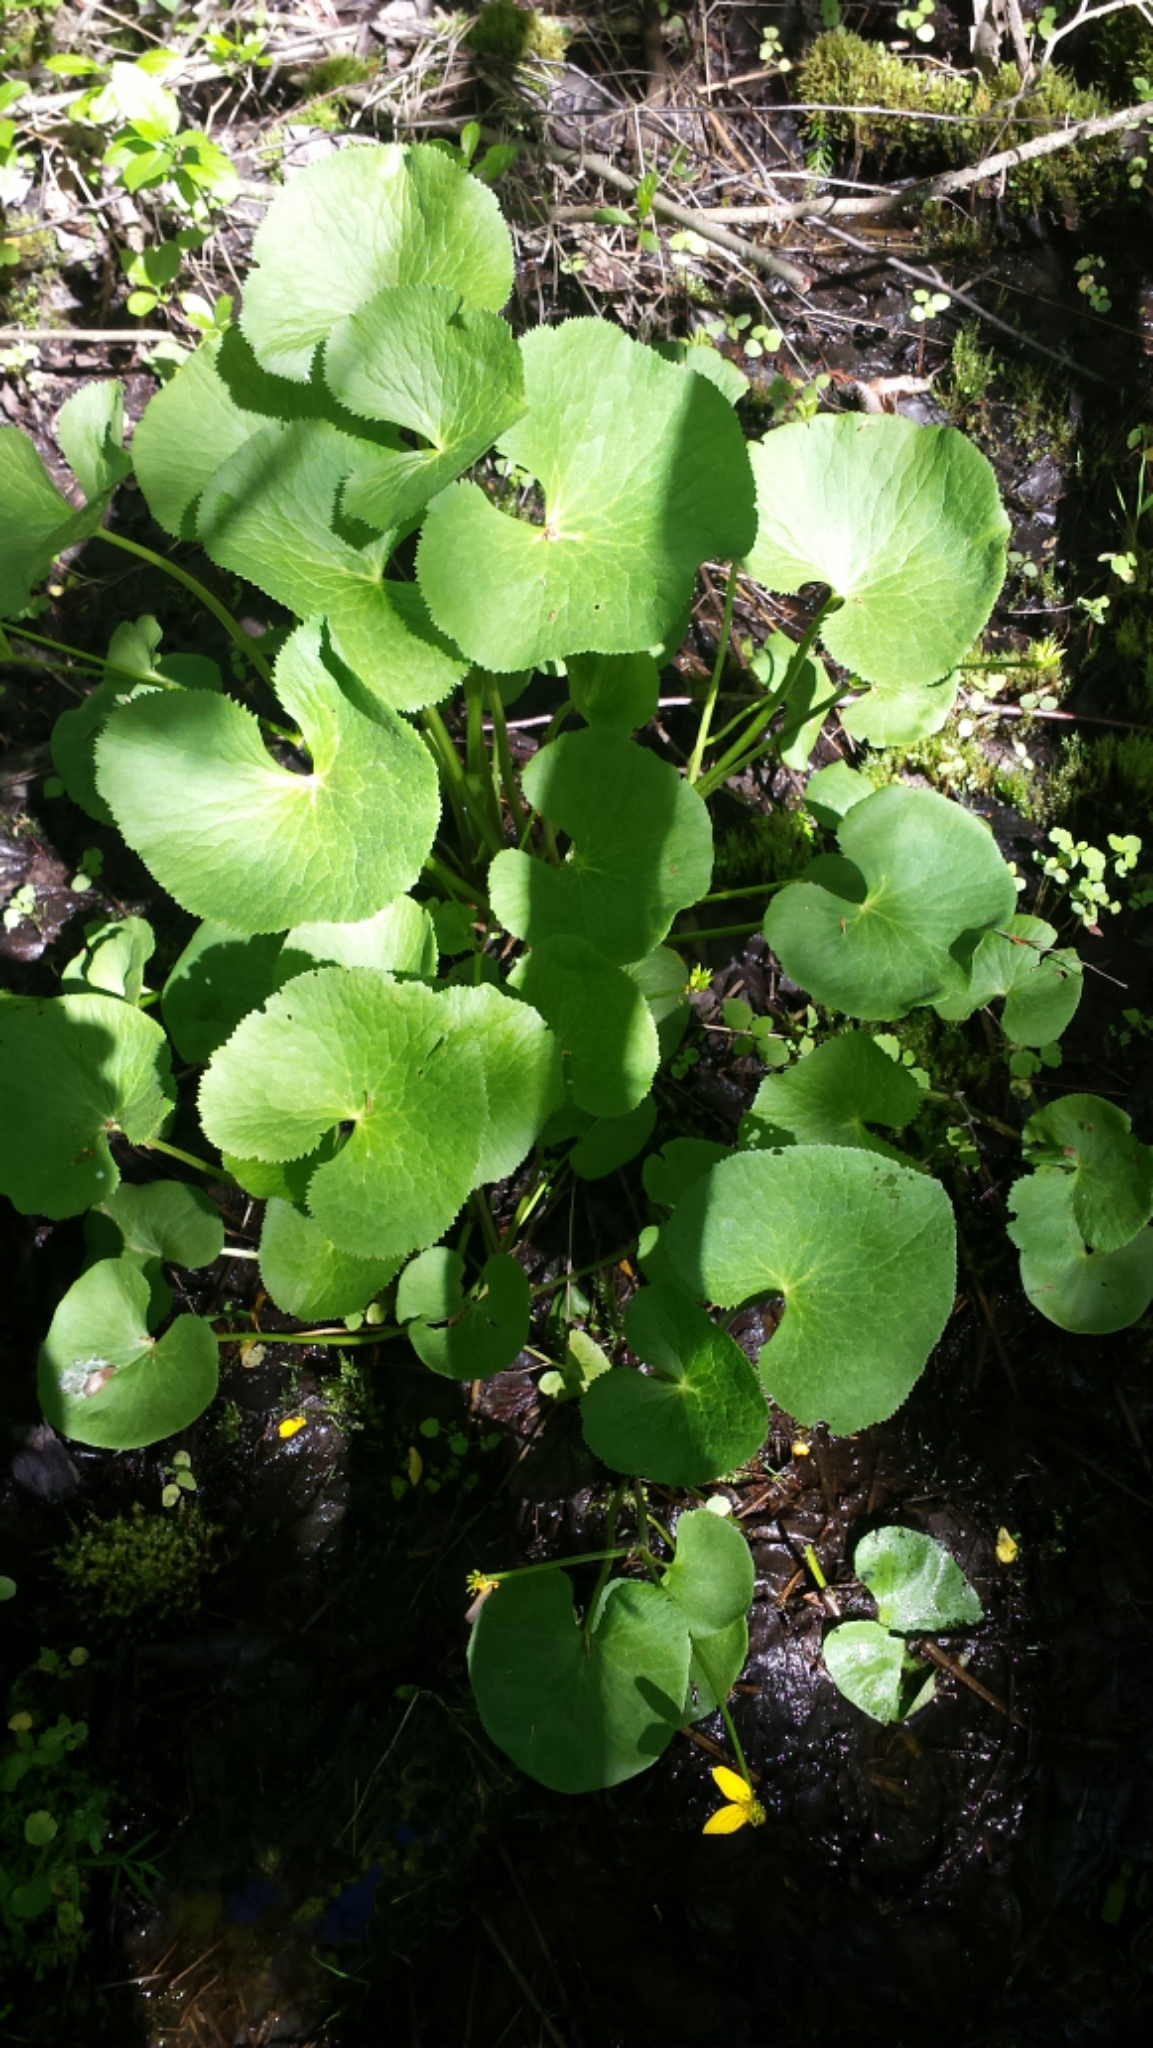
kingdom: Plantae
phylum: Tracheophyta
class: Magnoliopsida
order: Ranunculales
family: Ranunculaceae
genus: Caltha
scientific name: Caltha palustris
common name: Marsh marigold
